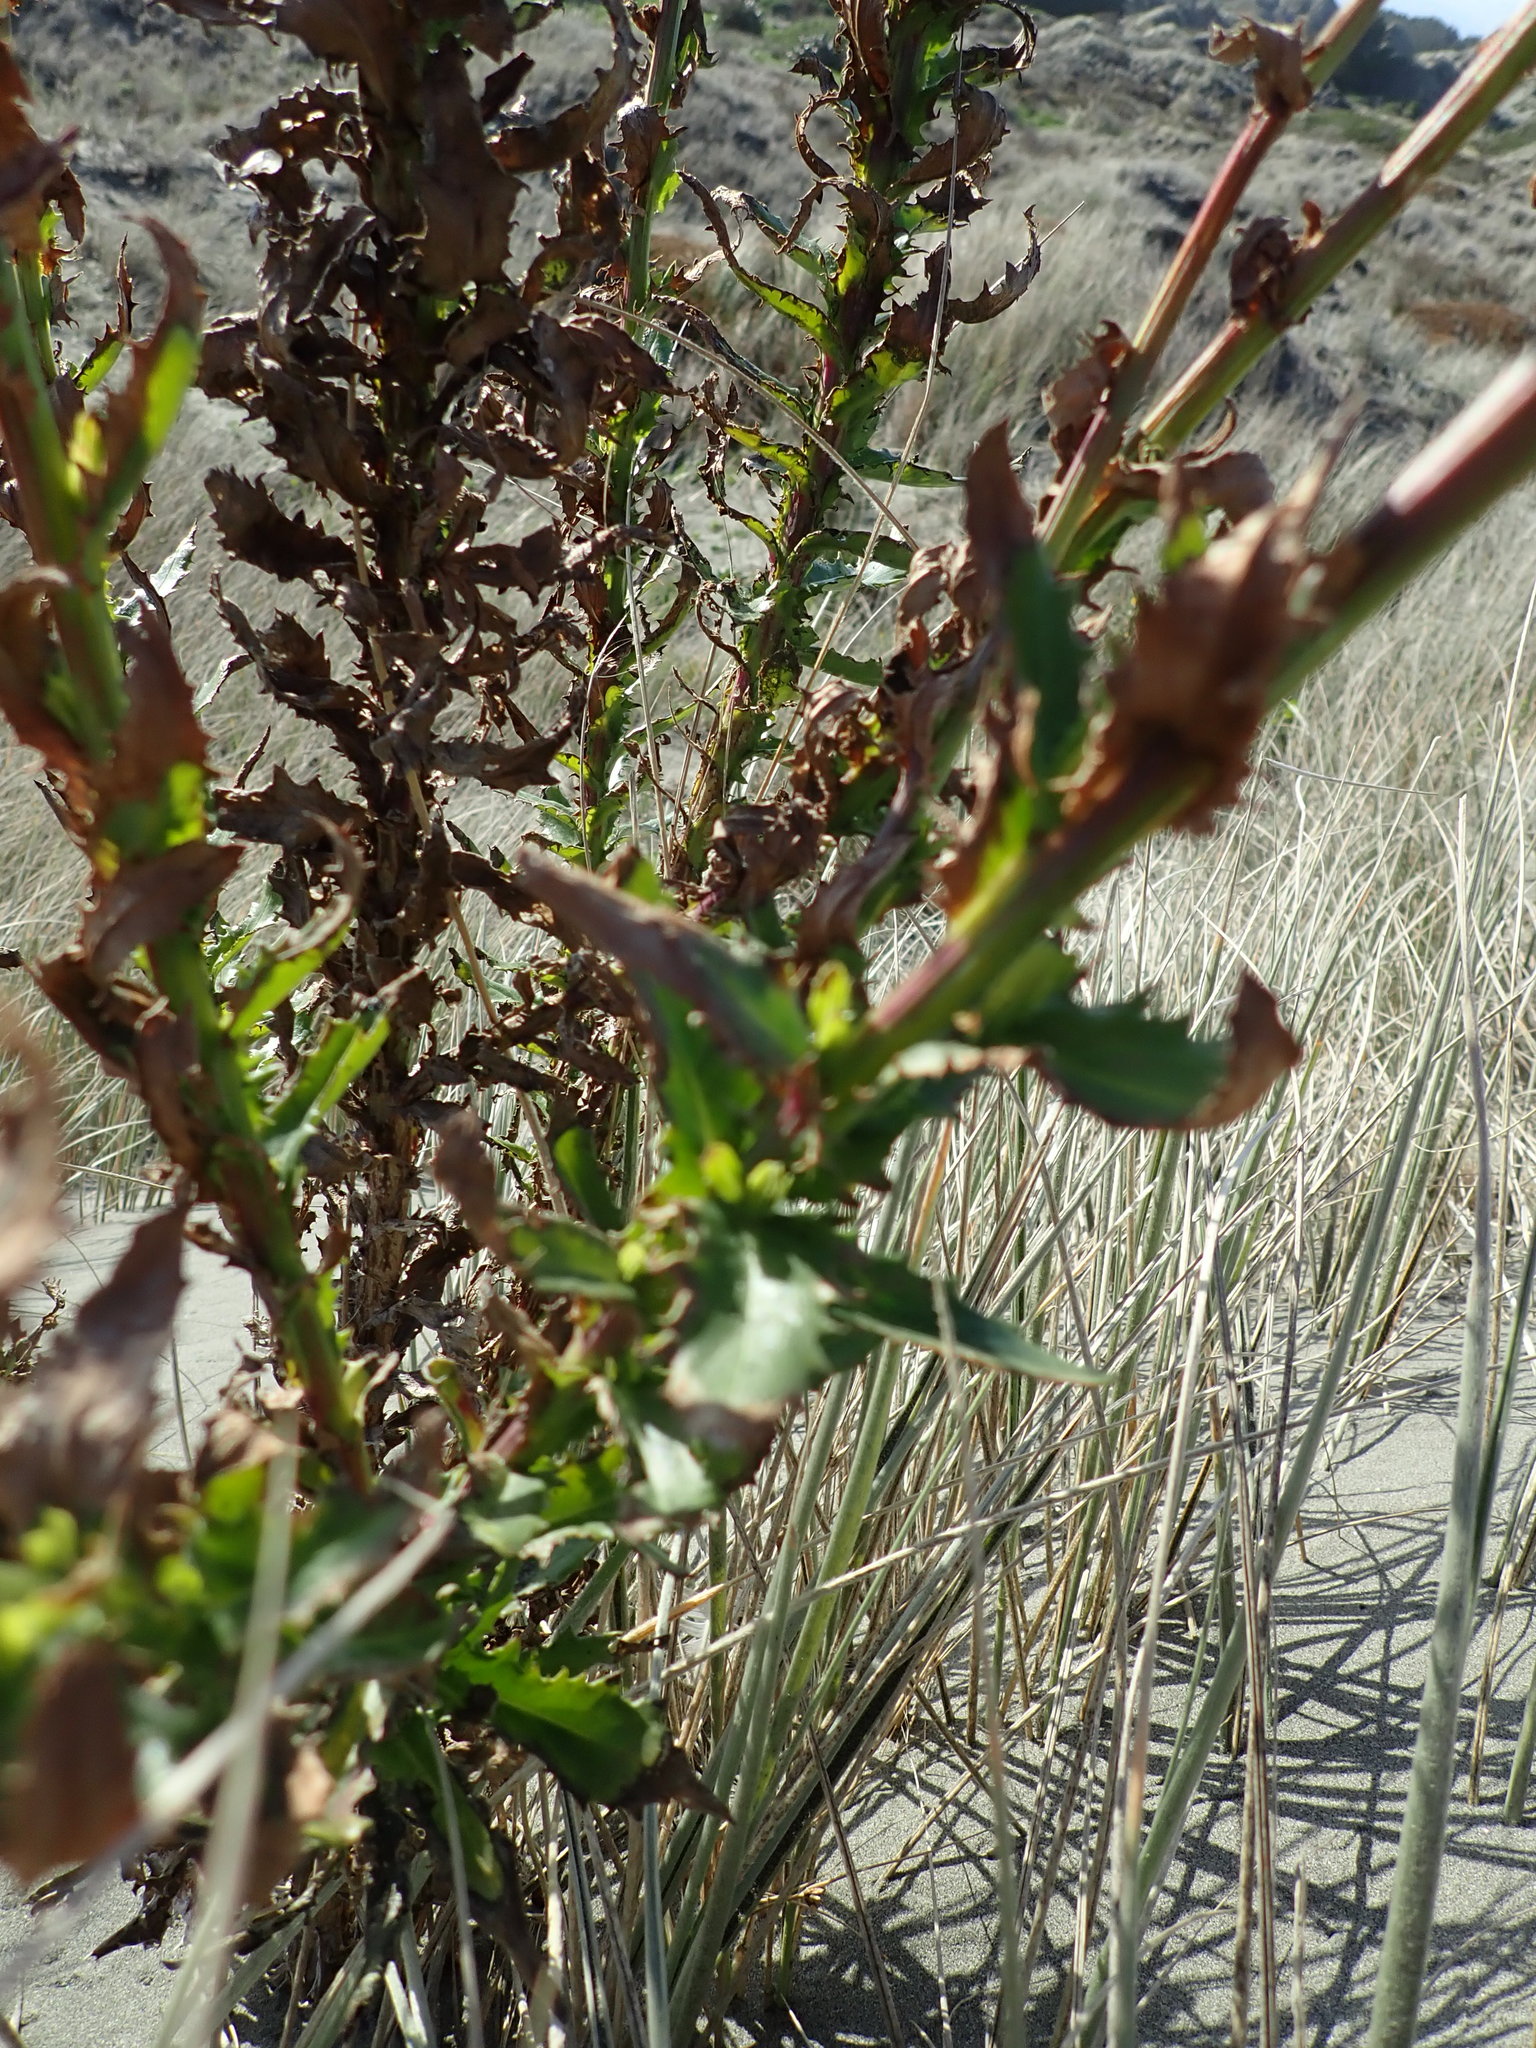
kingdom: Plantae
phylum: Tracheophyta
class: Magnoliopsida
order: Asterales
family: Asteraceae
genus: Senecio
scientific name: Senecio glastifolius
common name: Woad-leaved ragwort
